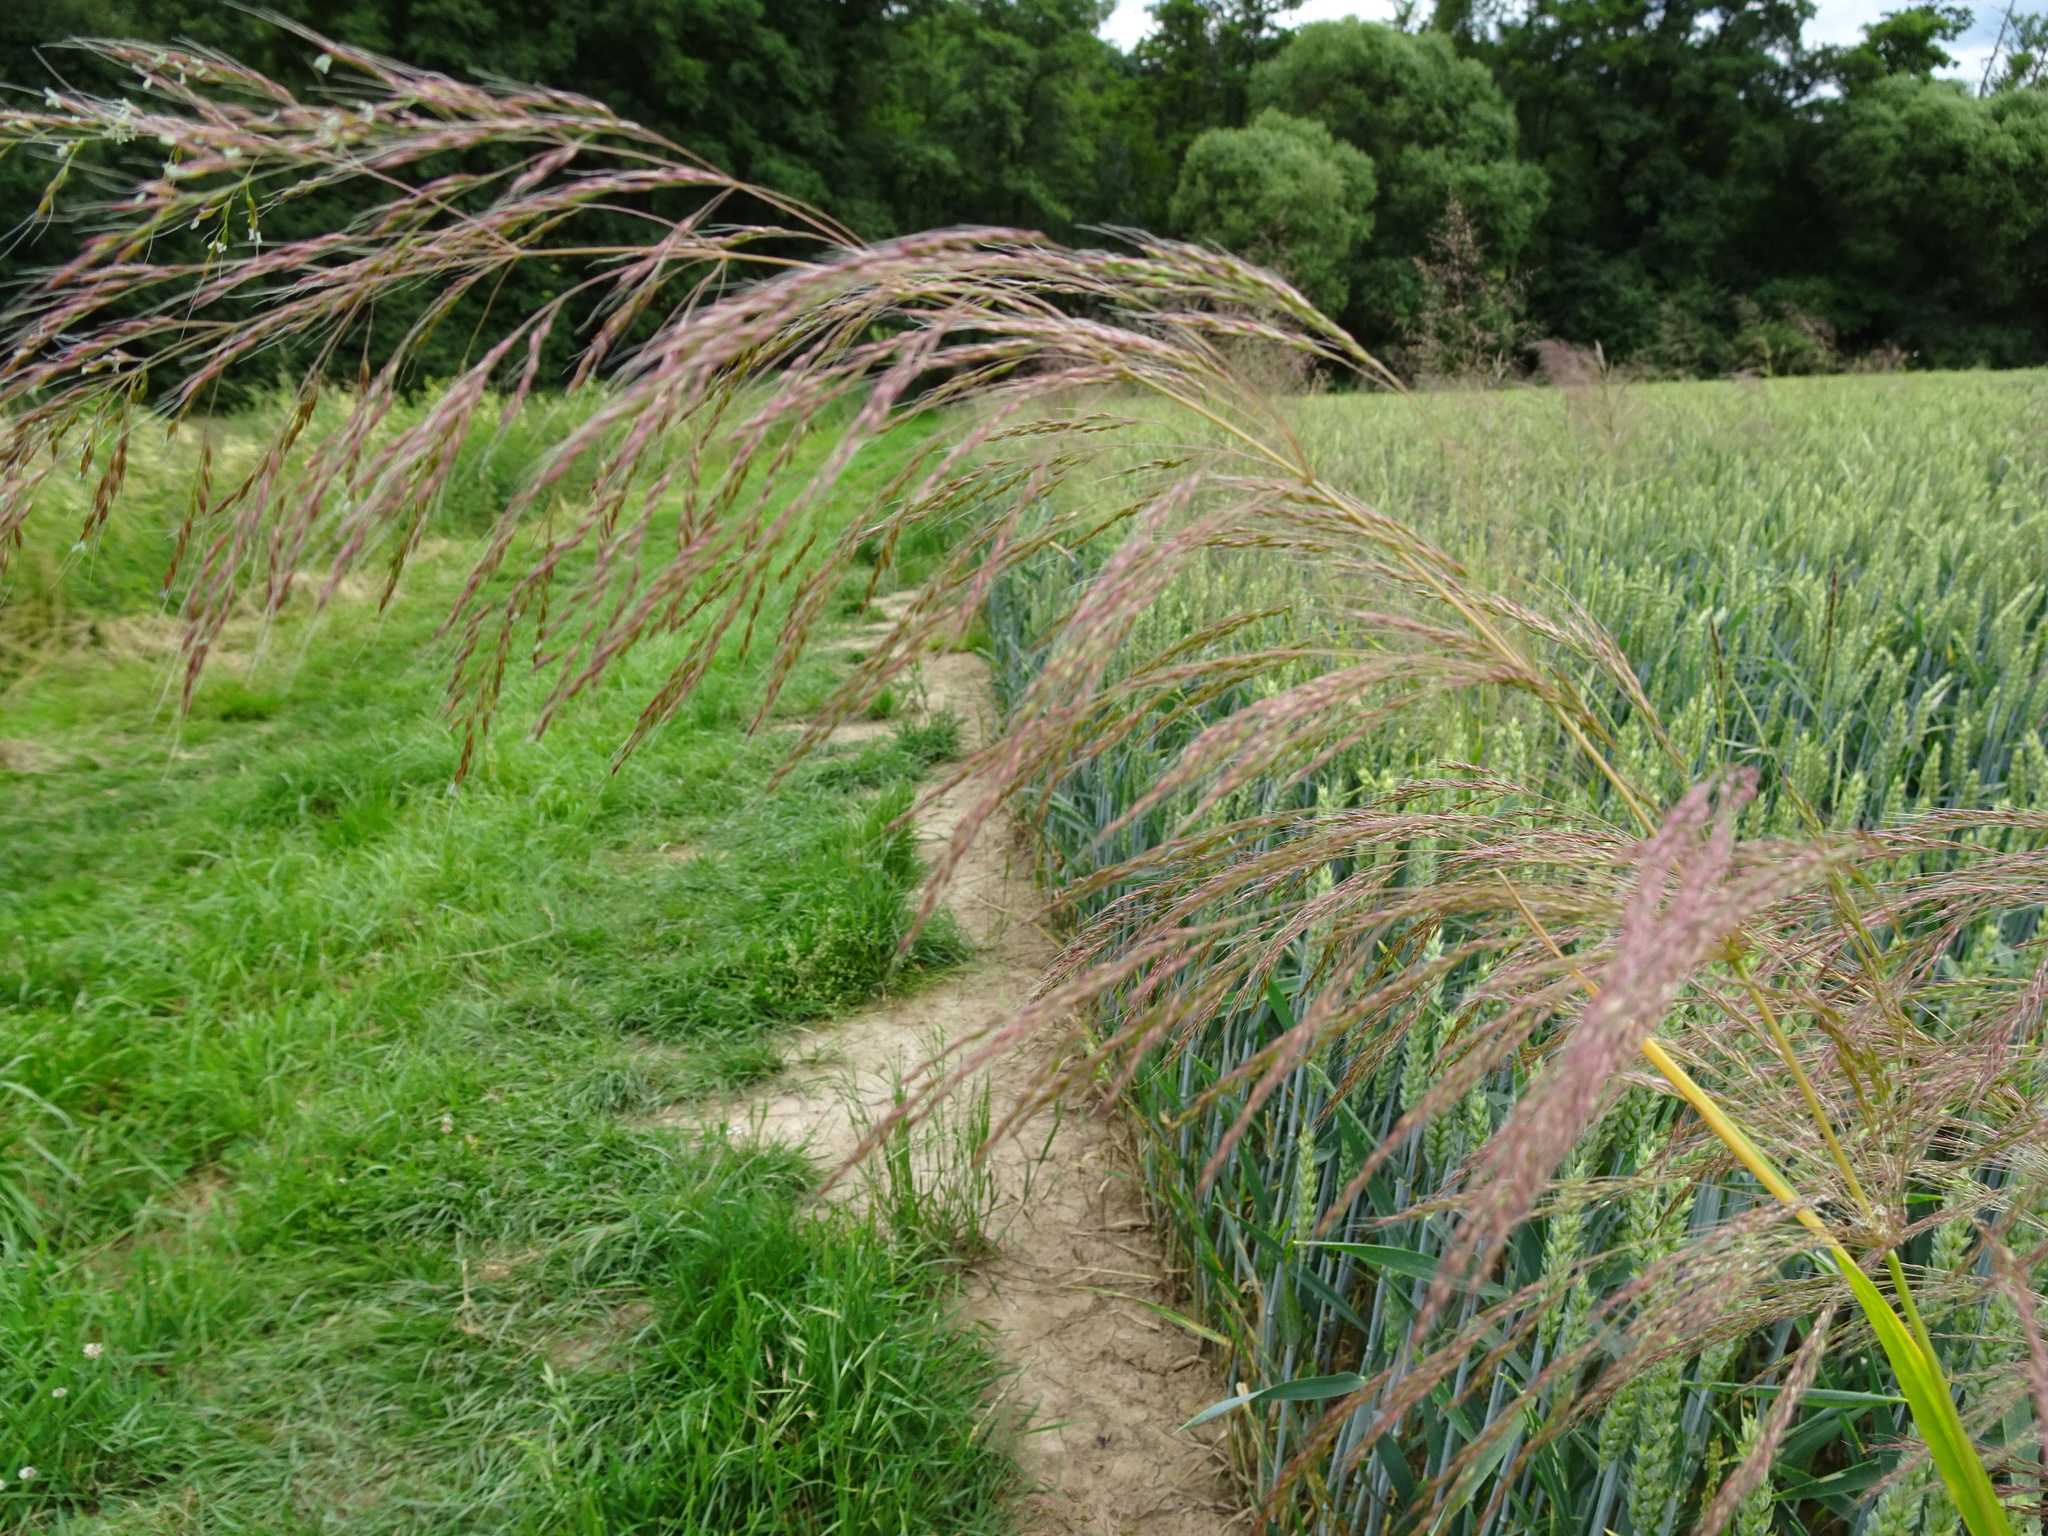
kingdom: Plantae
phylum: Tracheophyta
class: Liliopsida
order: Poales
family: Poaceae
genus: Apera
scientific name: Apera spica-venti
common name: Loose silky-bent
